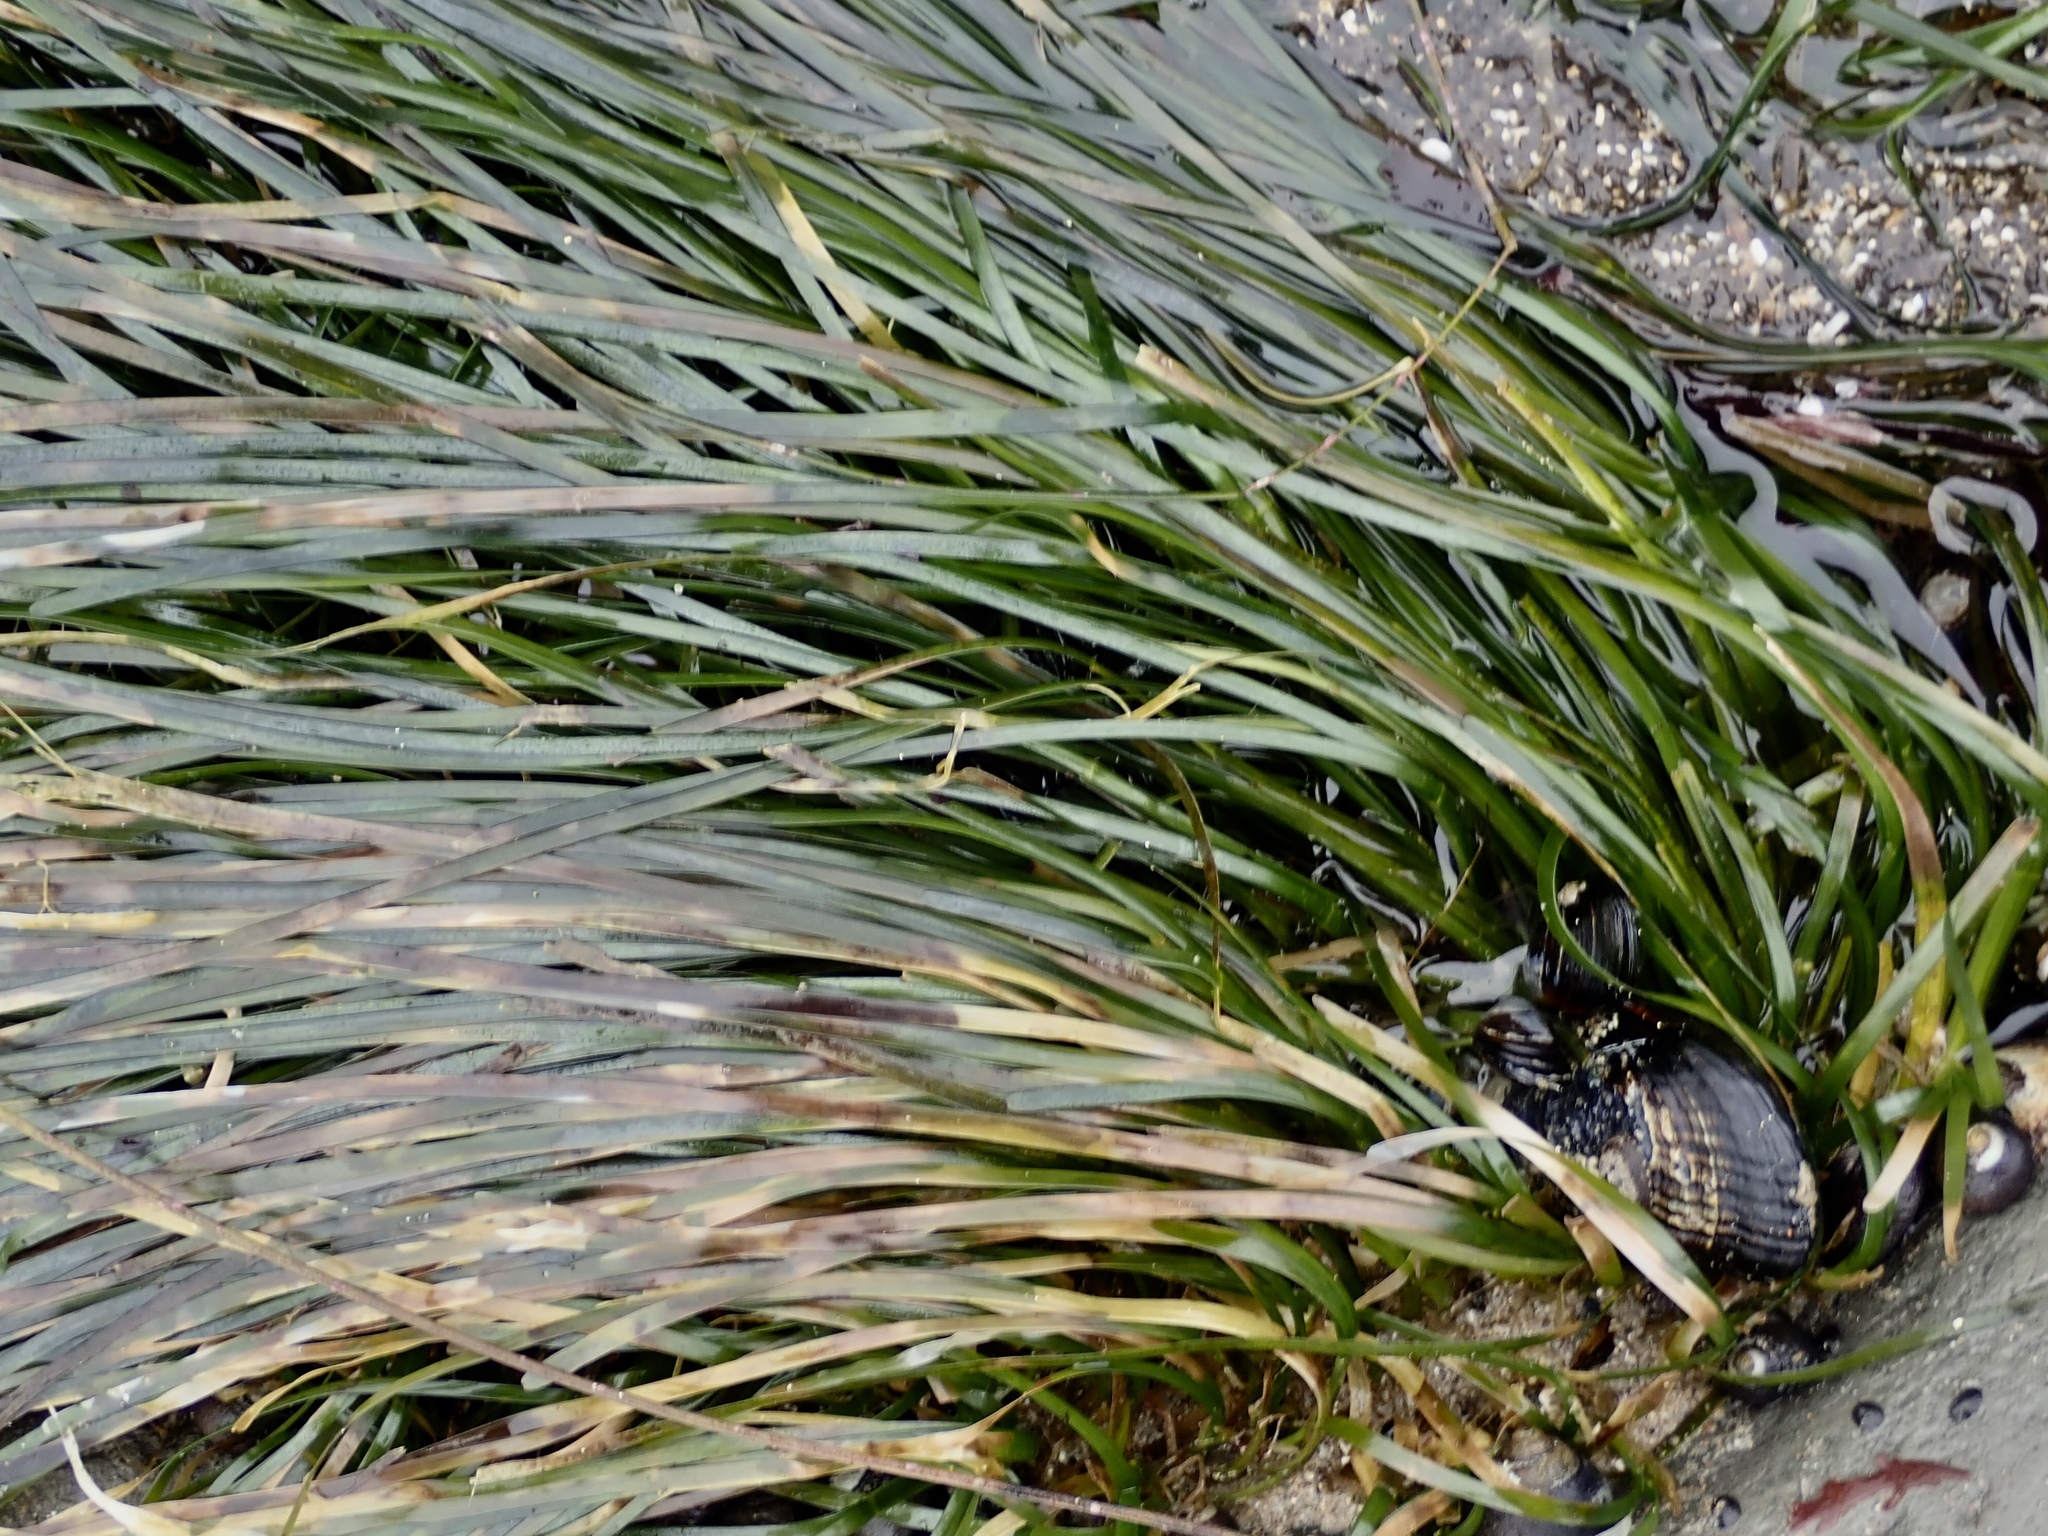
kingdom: Plantae
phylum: Tracheophyta
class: Liliopsida
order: Alismatales
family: Zosteraceae
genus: Phyllospadix
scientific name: Phyllospadix scouleri
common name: Species code: ps
